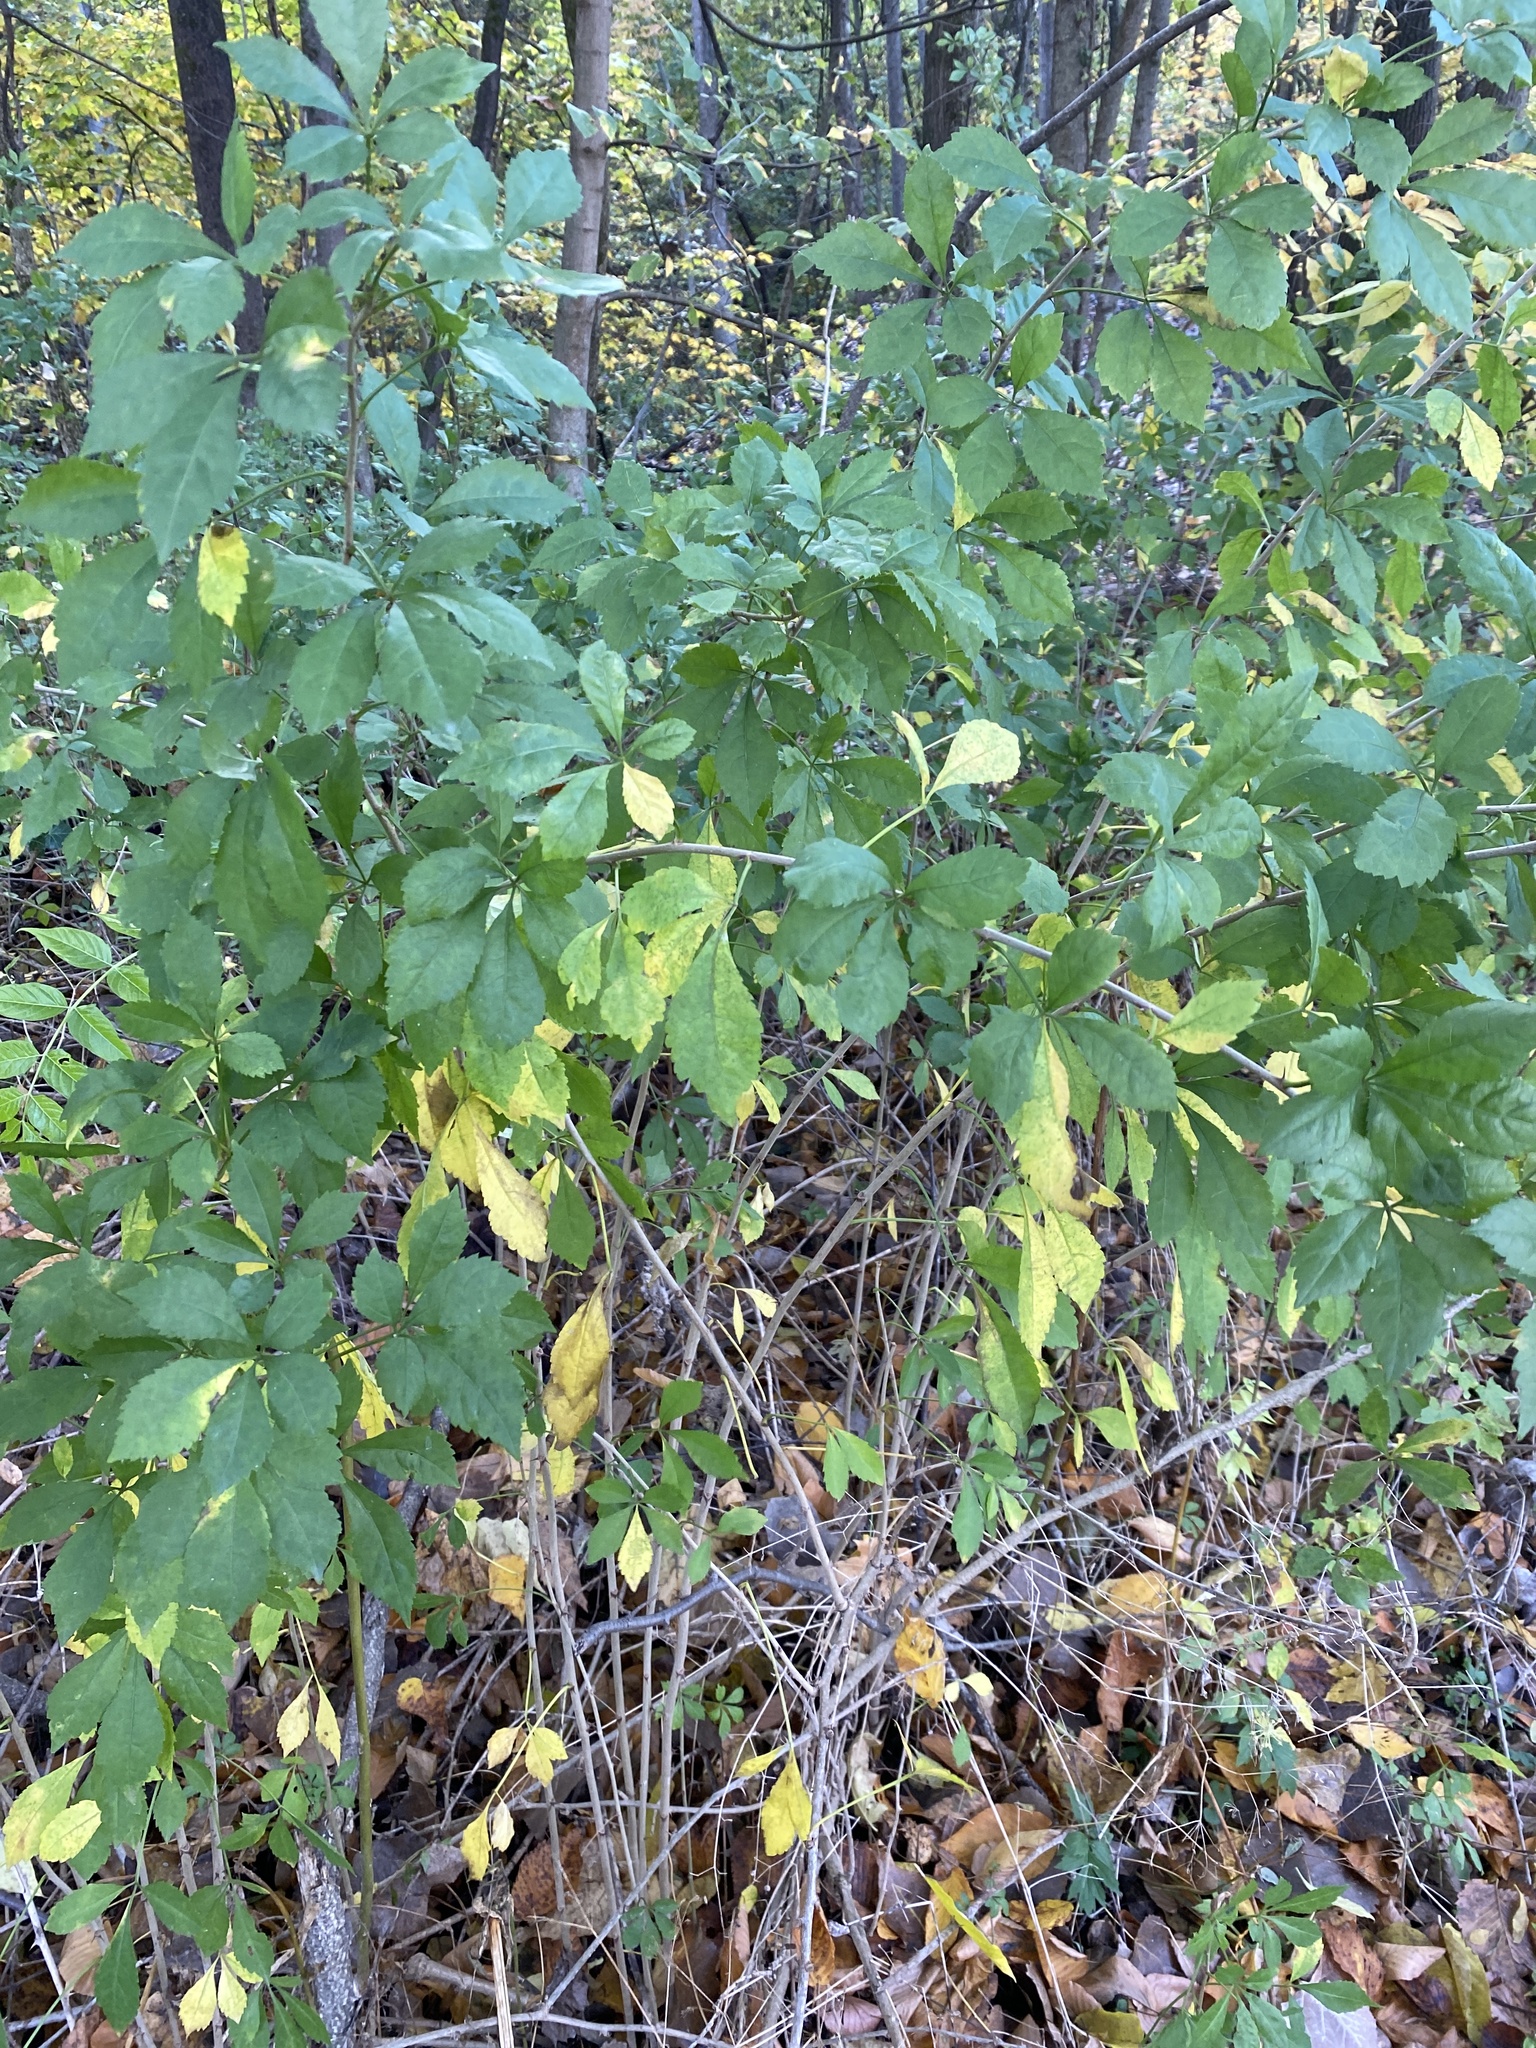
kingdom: Plantae
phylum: Tracheophyta
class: Magnoliopsida
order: Apiales
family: Araliaceae
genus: Eleutherococcus
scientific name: Eleutherococcus sieboldianus
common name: Ginseng
